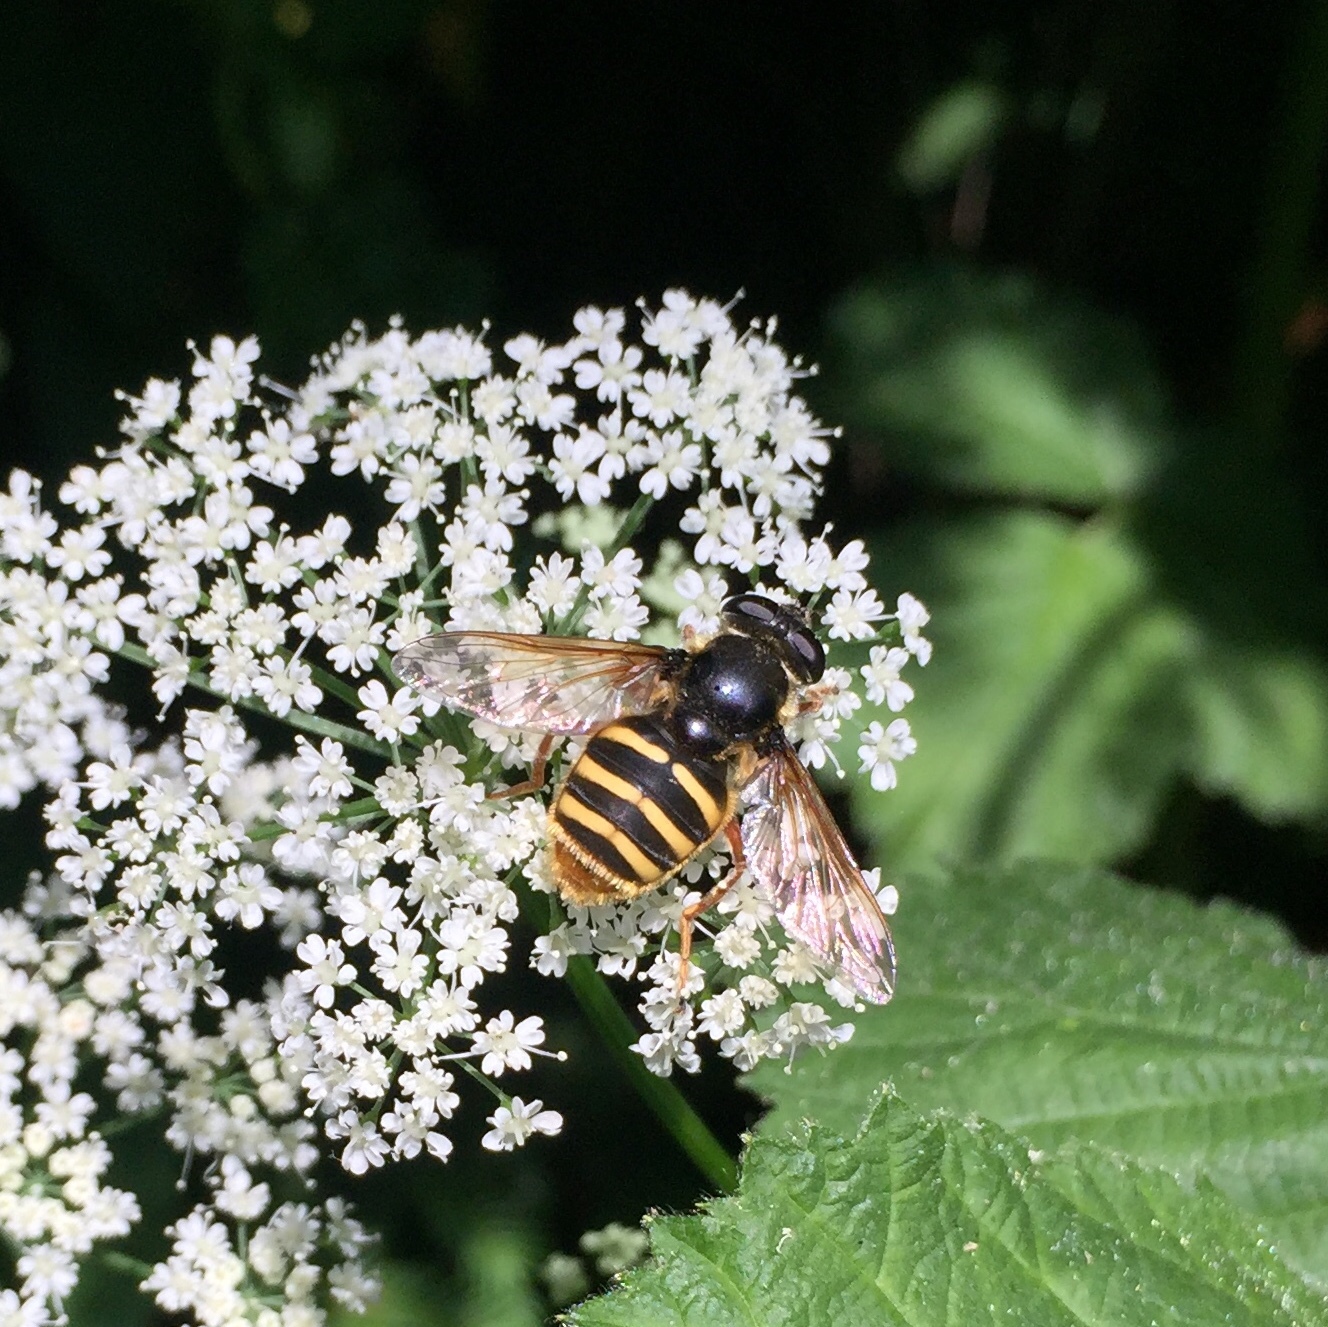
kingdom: Animalia
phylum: Arthropoda
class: Insecta
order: Diptera
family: Syrphidae
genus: Sericomyia
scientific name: Sericomyia silentis
